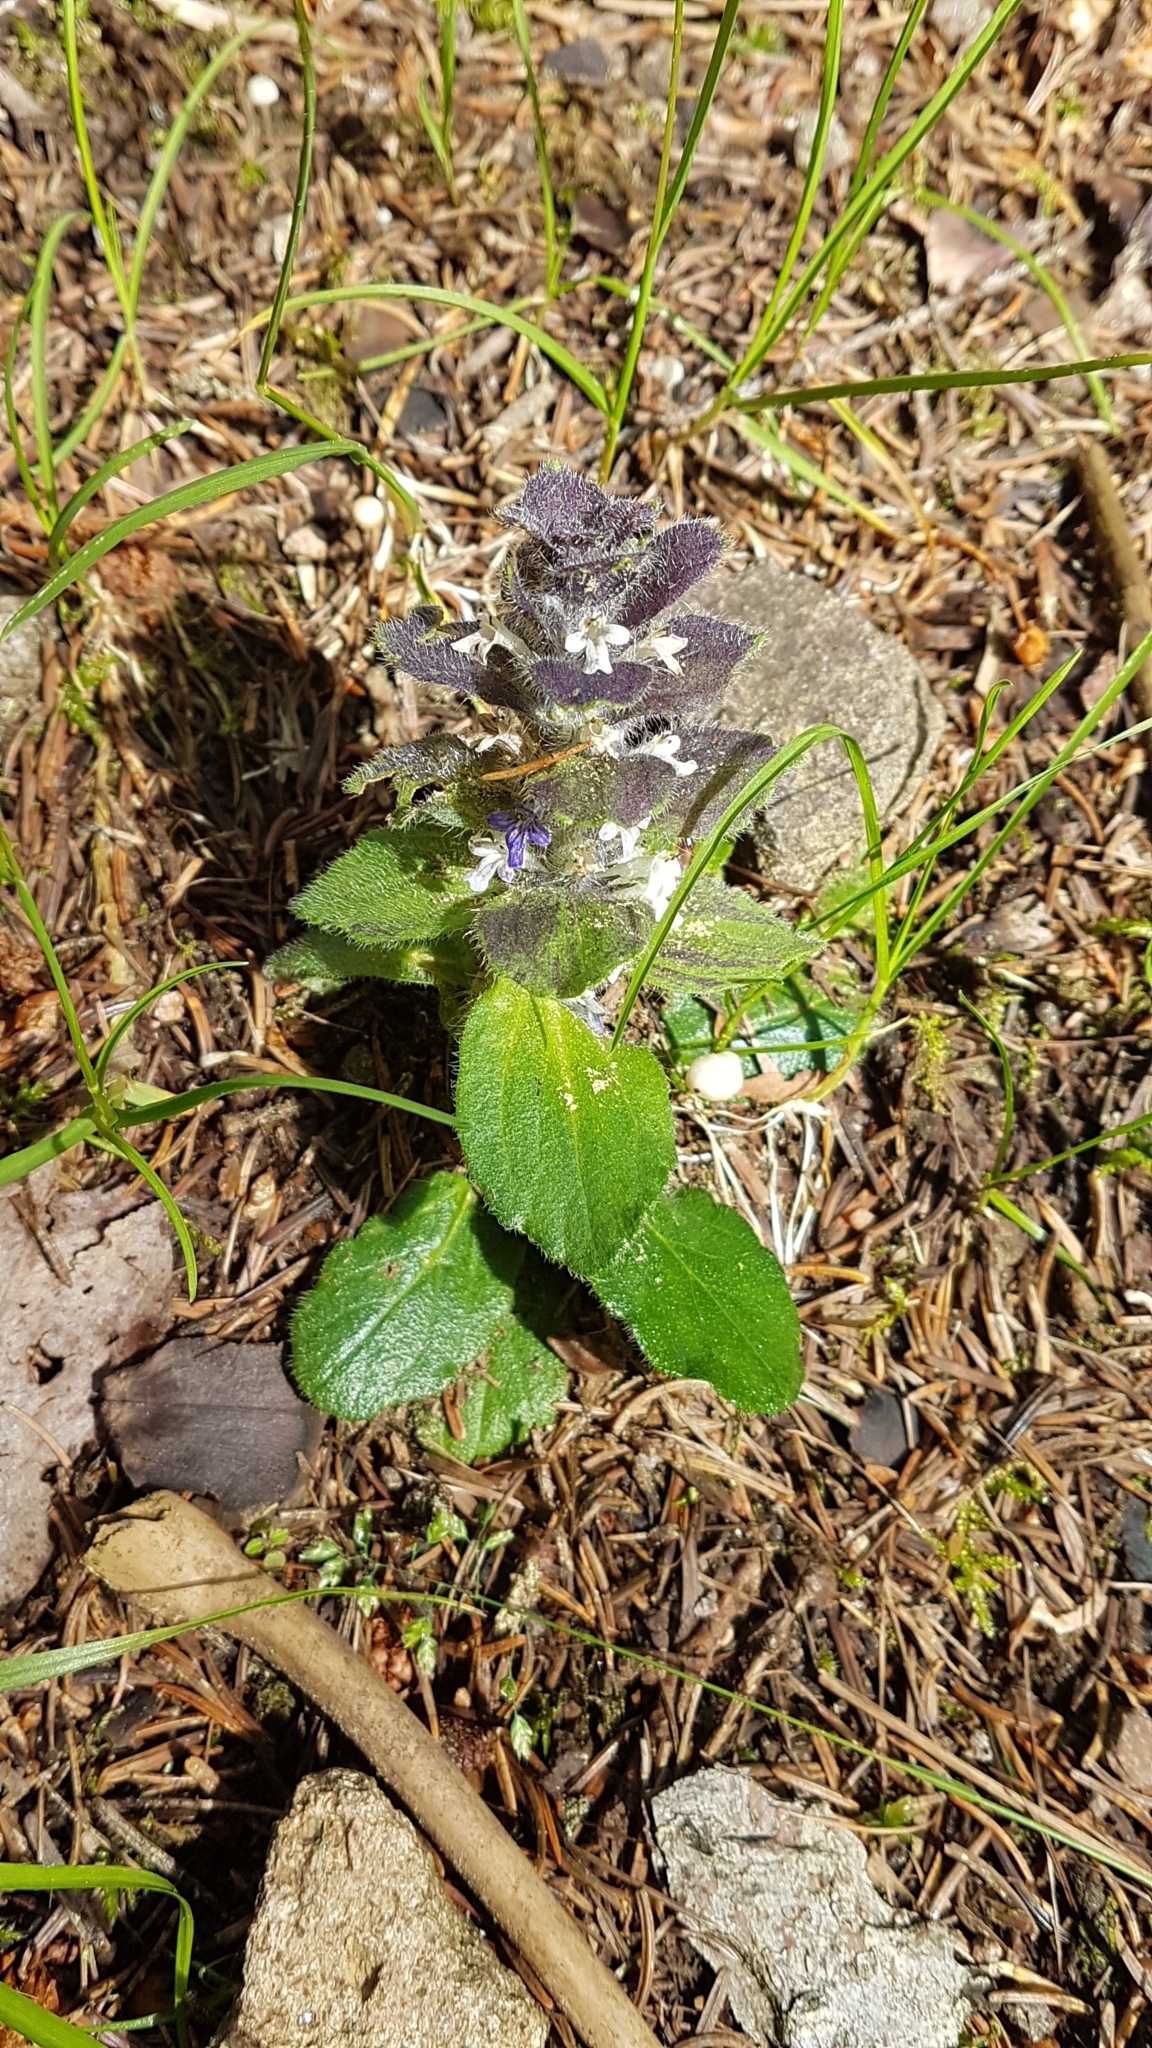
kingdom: Plantae
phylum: Tracheophyta
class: Magnoliopsida
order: Lamiales
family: Lamiaceae
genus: Ajuga
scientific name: Ajuga pyramidalis
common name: Pyramid bugle
